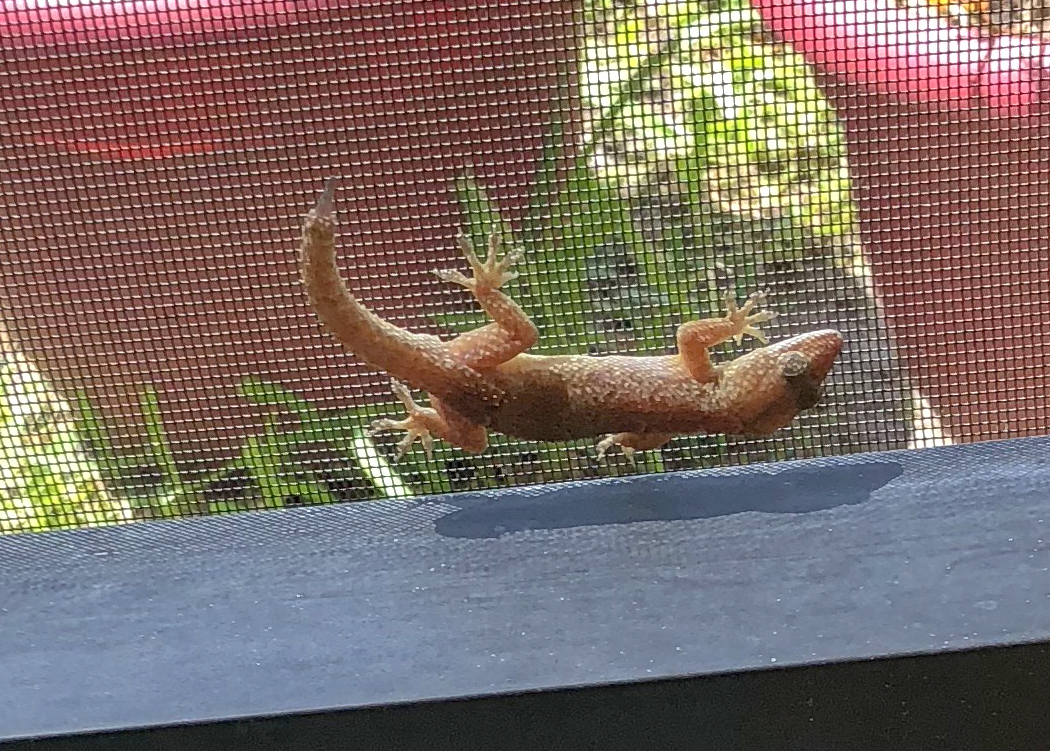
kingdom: Animalia
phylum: Chordata
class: Squamata
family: Gekkonidae
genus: Hemidactylus
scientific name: Hemidactylus mabouia
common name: House gecko
